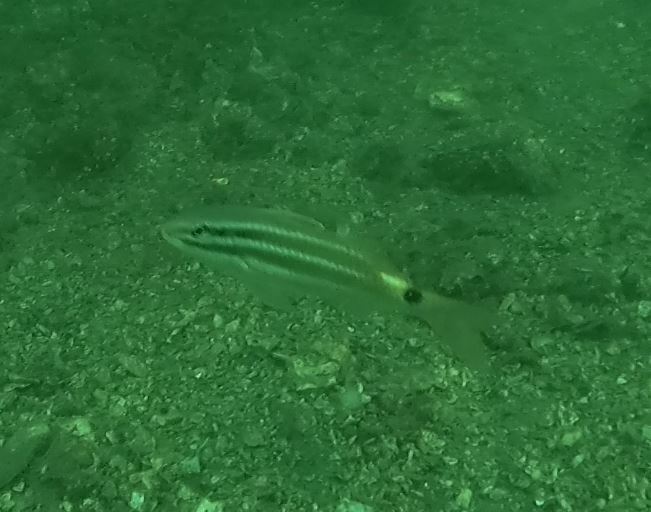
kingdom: Animalia
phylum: Chordata
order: Perciformes
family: Mullidae
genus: Parupeneus
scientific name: Parupeneus spilurus
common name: Blackspot goatfish
